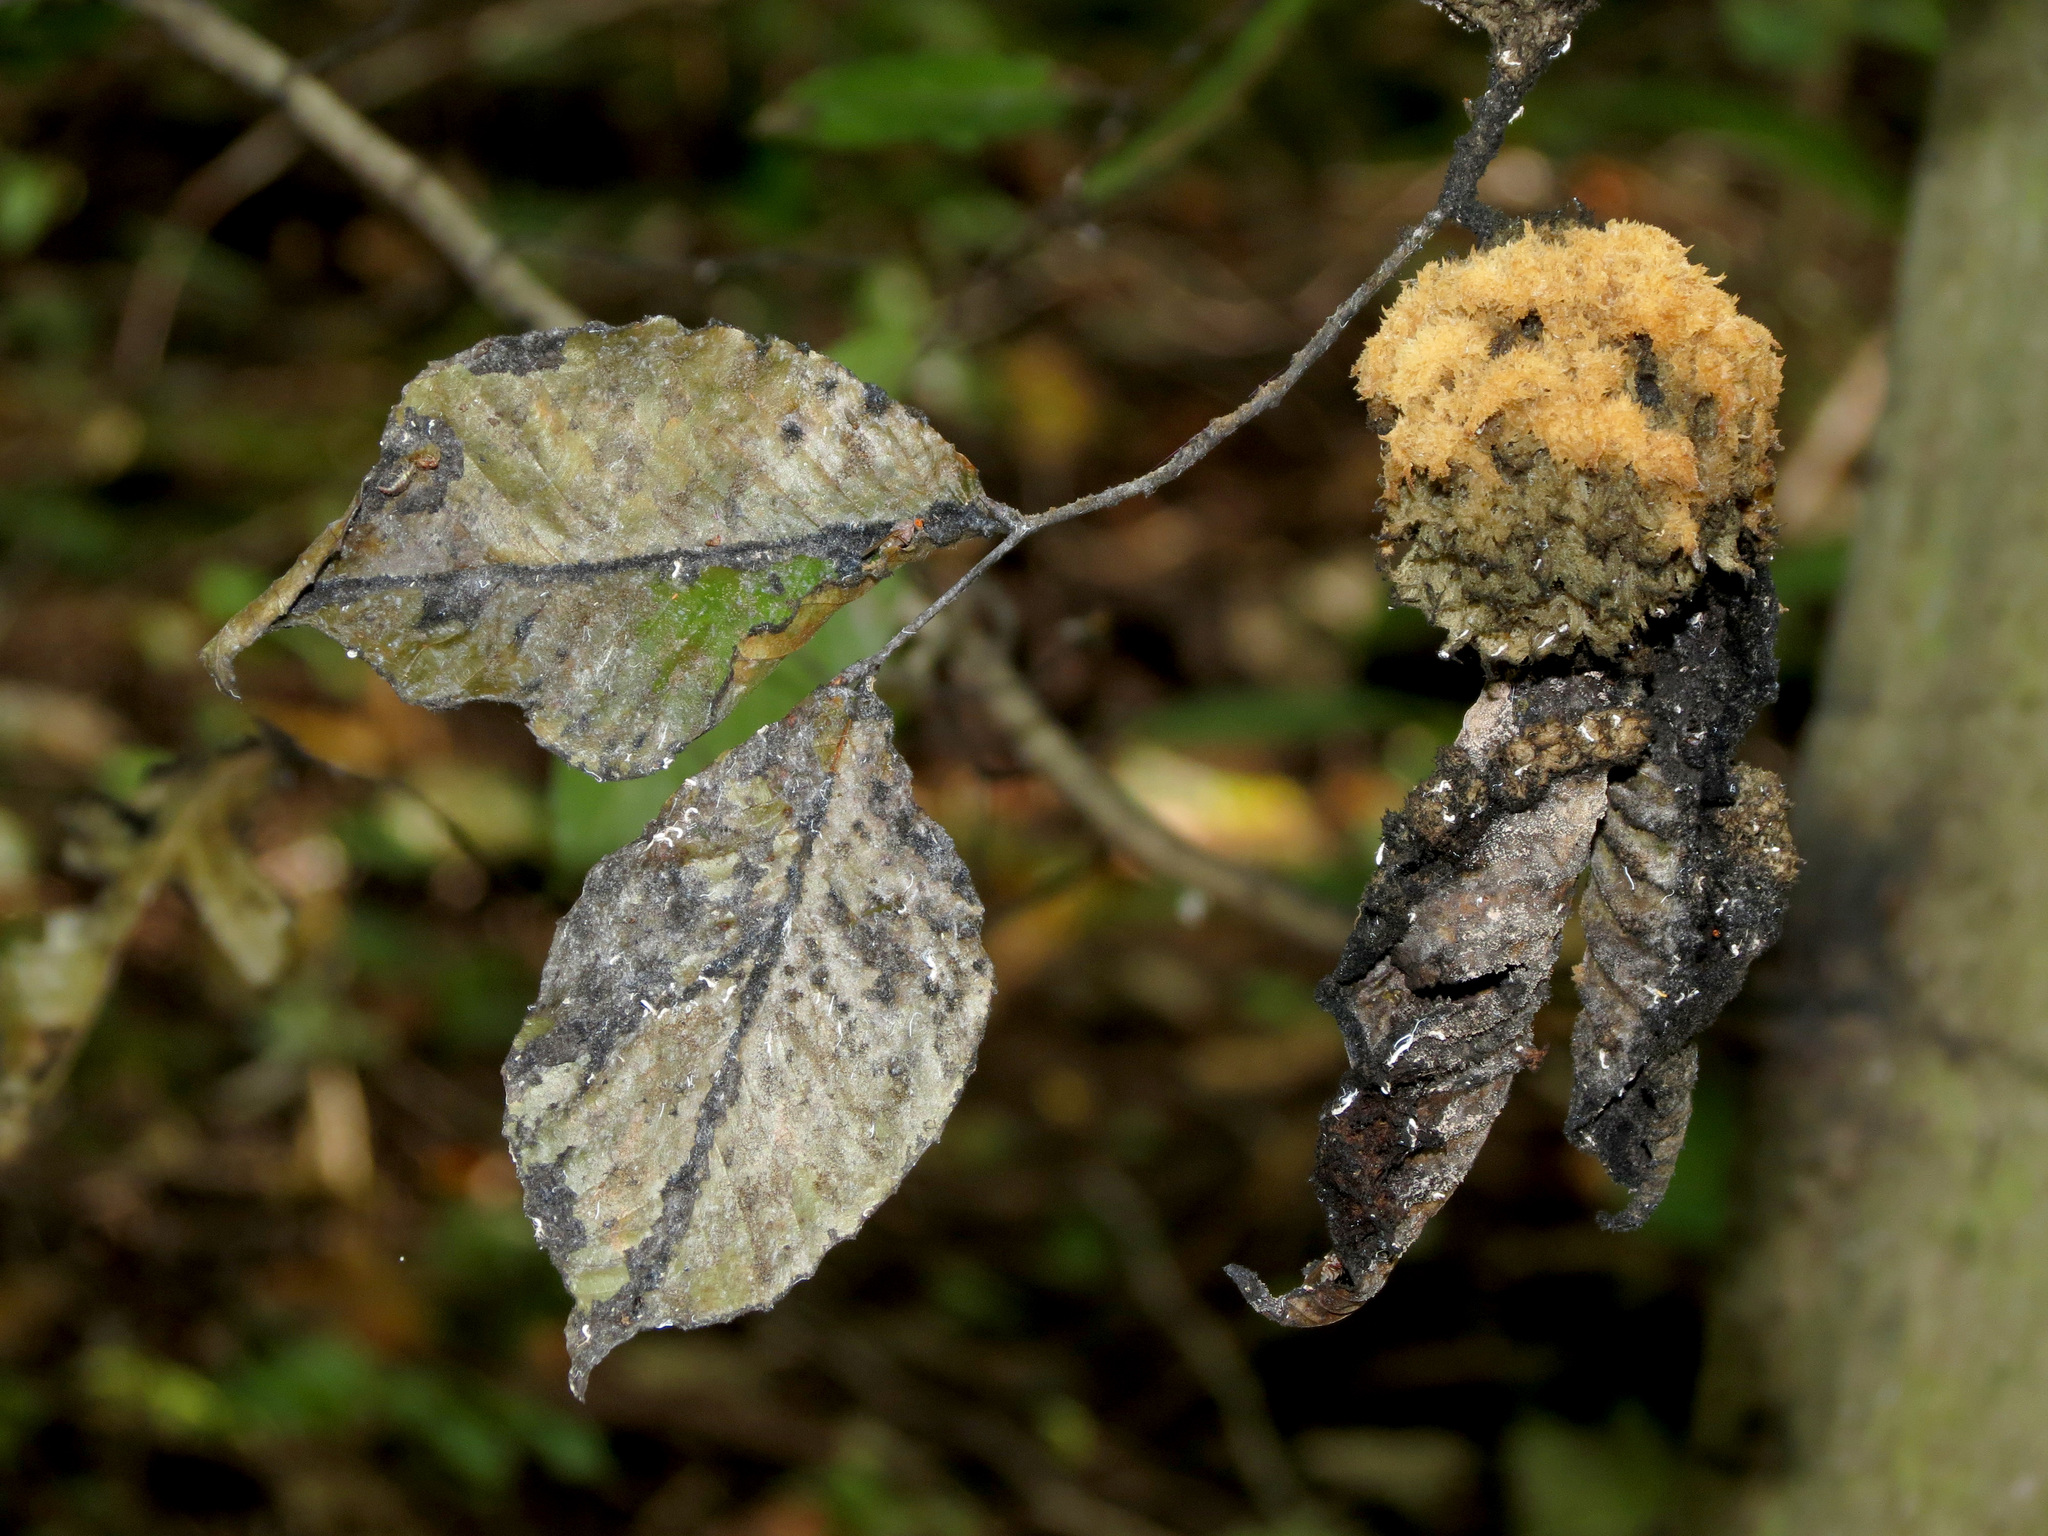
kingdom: Fungi
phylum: Ascomycota
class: Dothideomycetes
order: Capnodiales
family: Capnodiaceae
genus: Scorias
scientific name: Scorias spongiosa
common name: Black sooty mold
